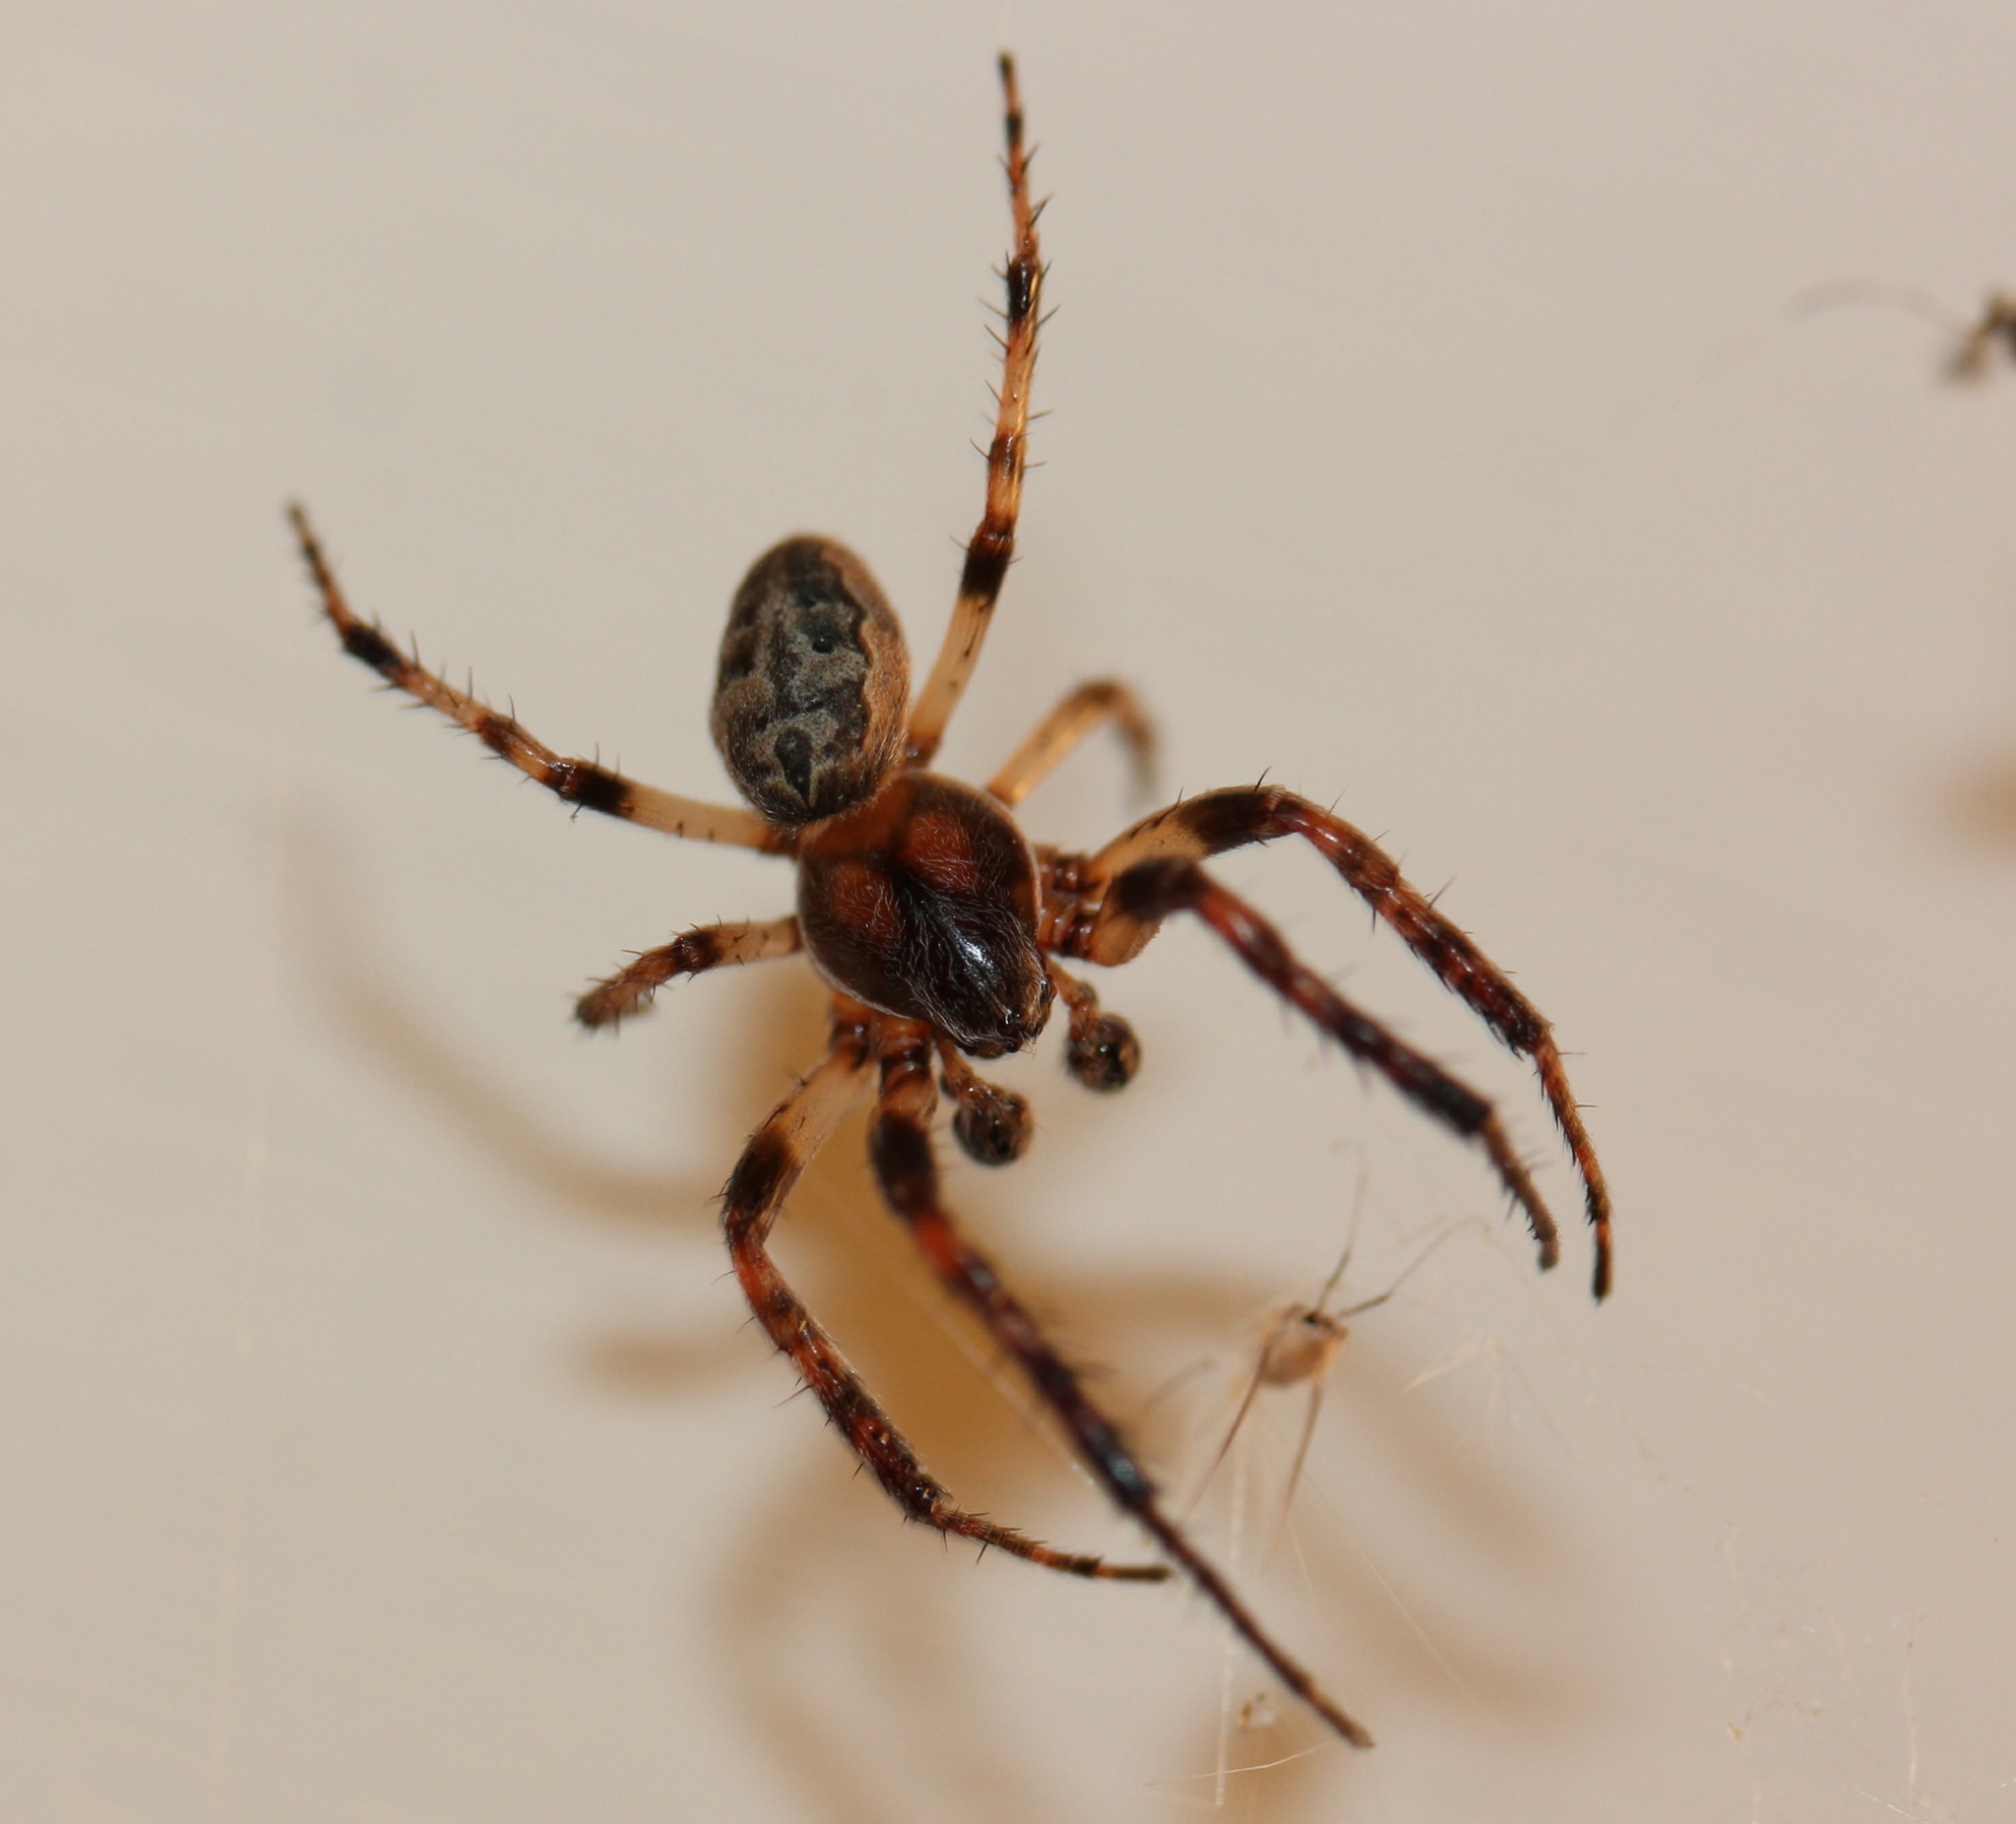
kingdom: Animalia
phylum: Arthropoda
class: Arachnida
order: Araneae
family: Araneidae
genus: Larinioides
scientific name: Larinioides cornutus
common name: Furrow orbweaver
